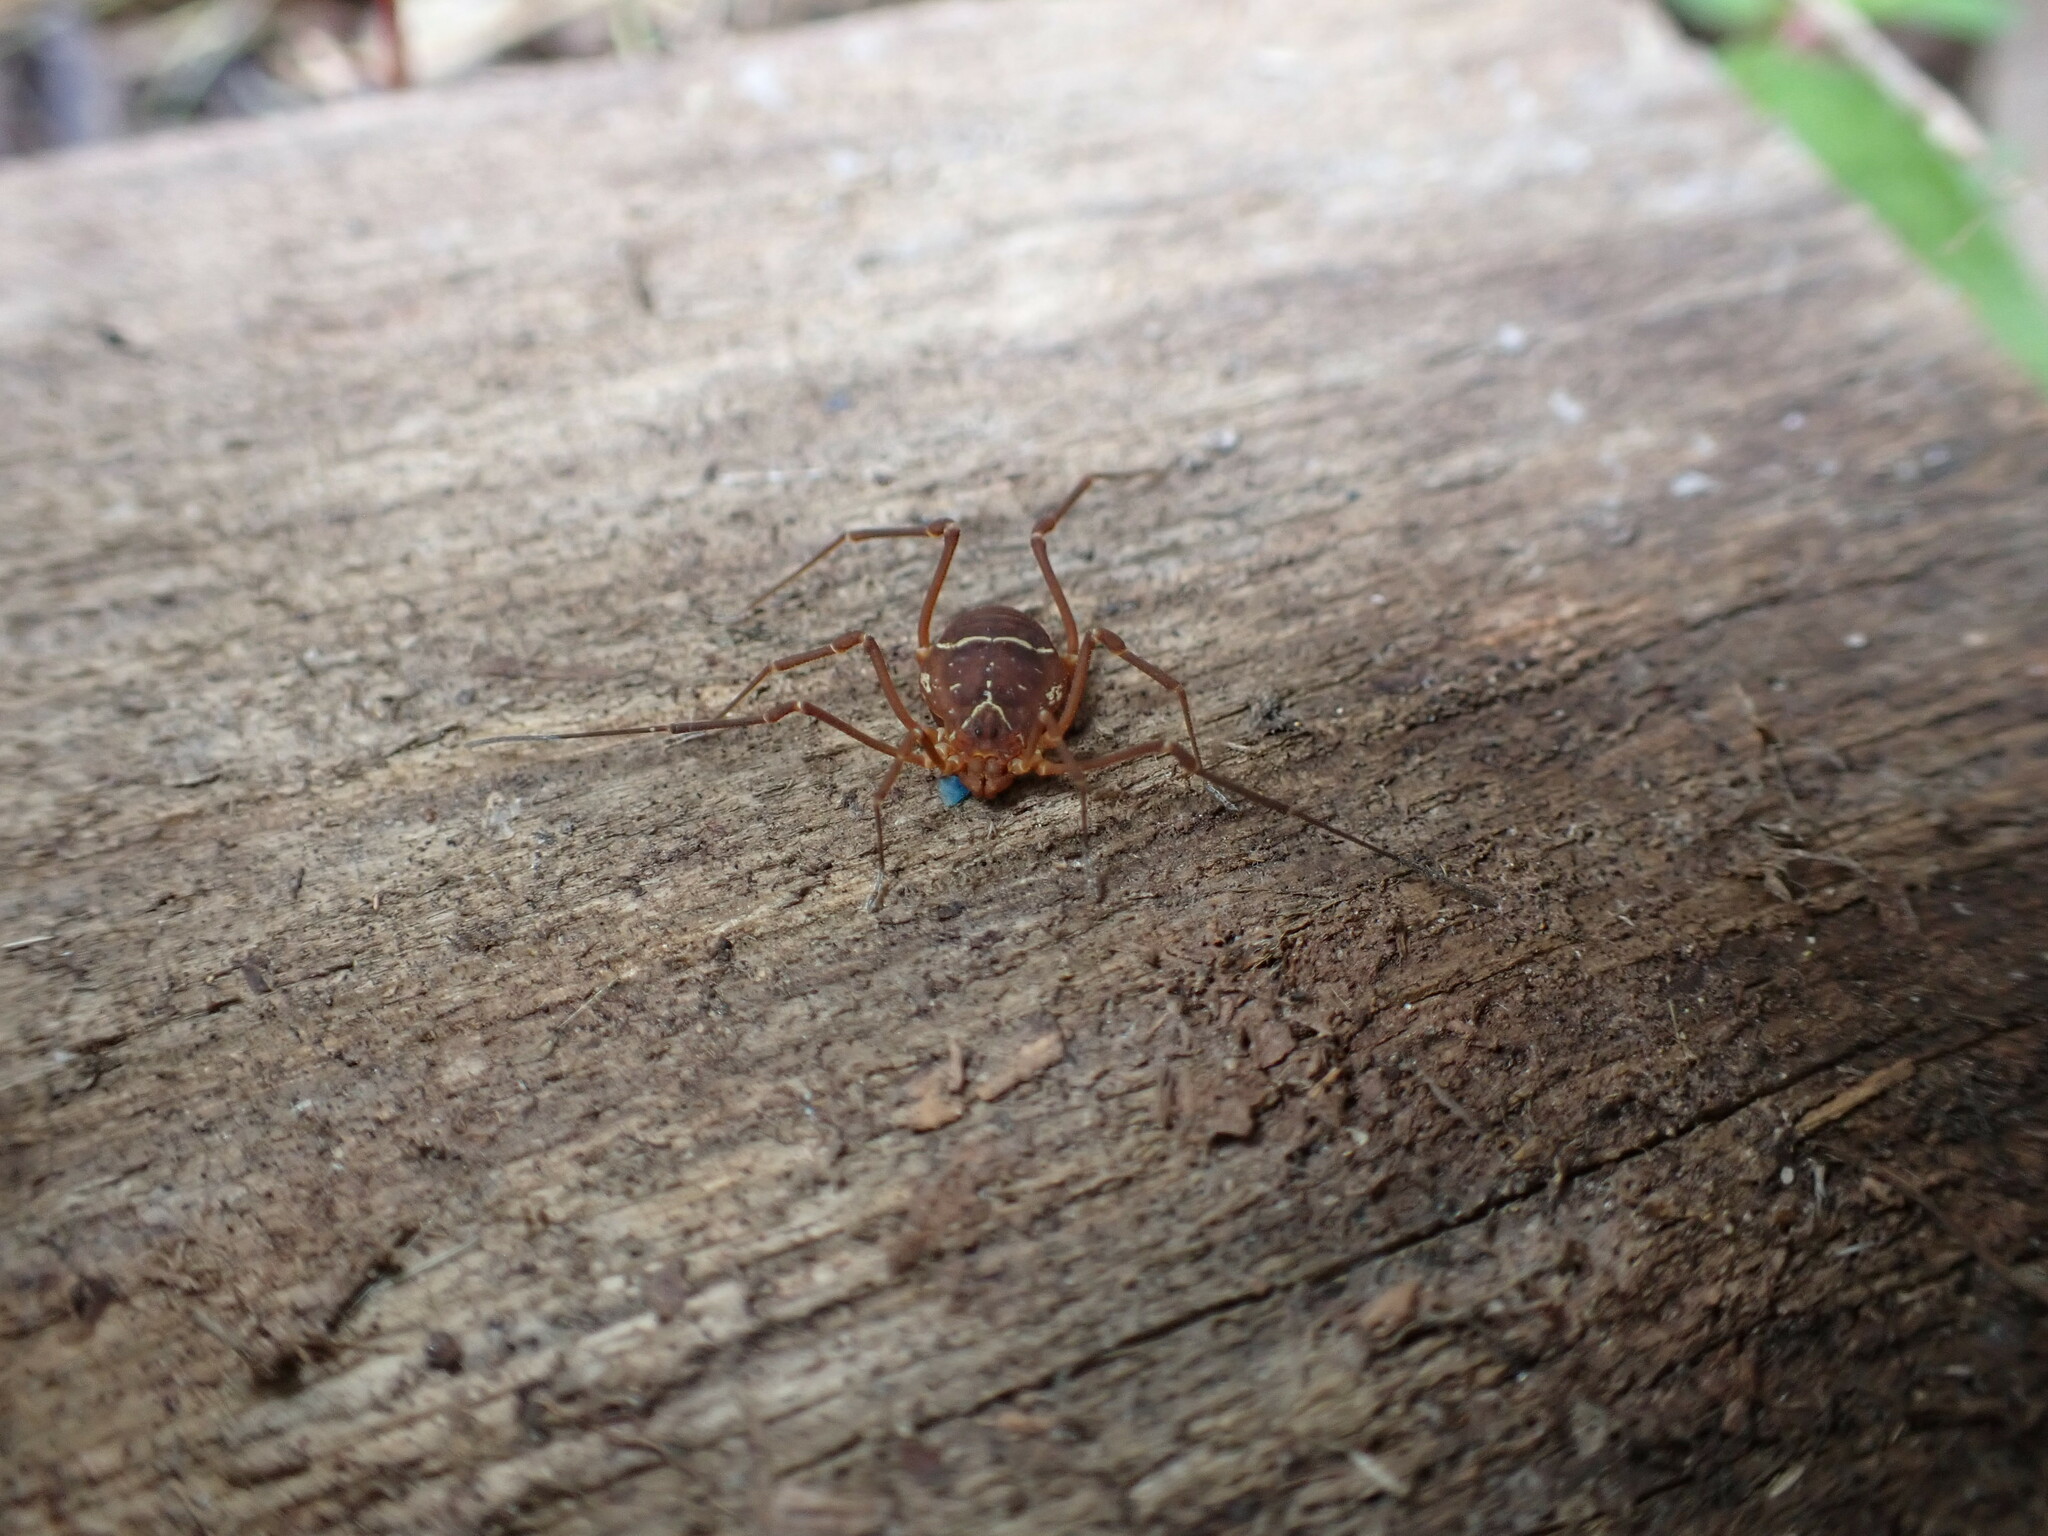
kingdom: Animalia
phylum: Arthropoda
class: Arachnida
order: Opiliones
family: Cosmetidae
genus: Libitioides
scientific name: Libitioides sayi
